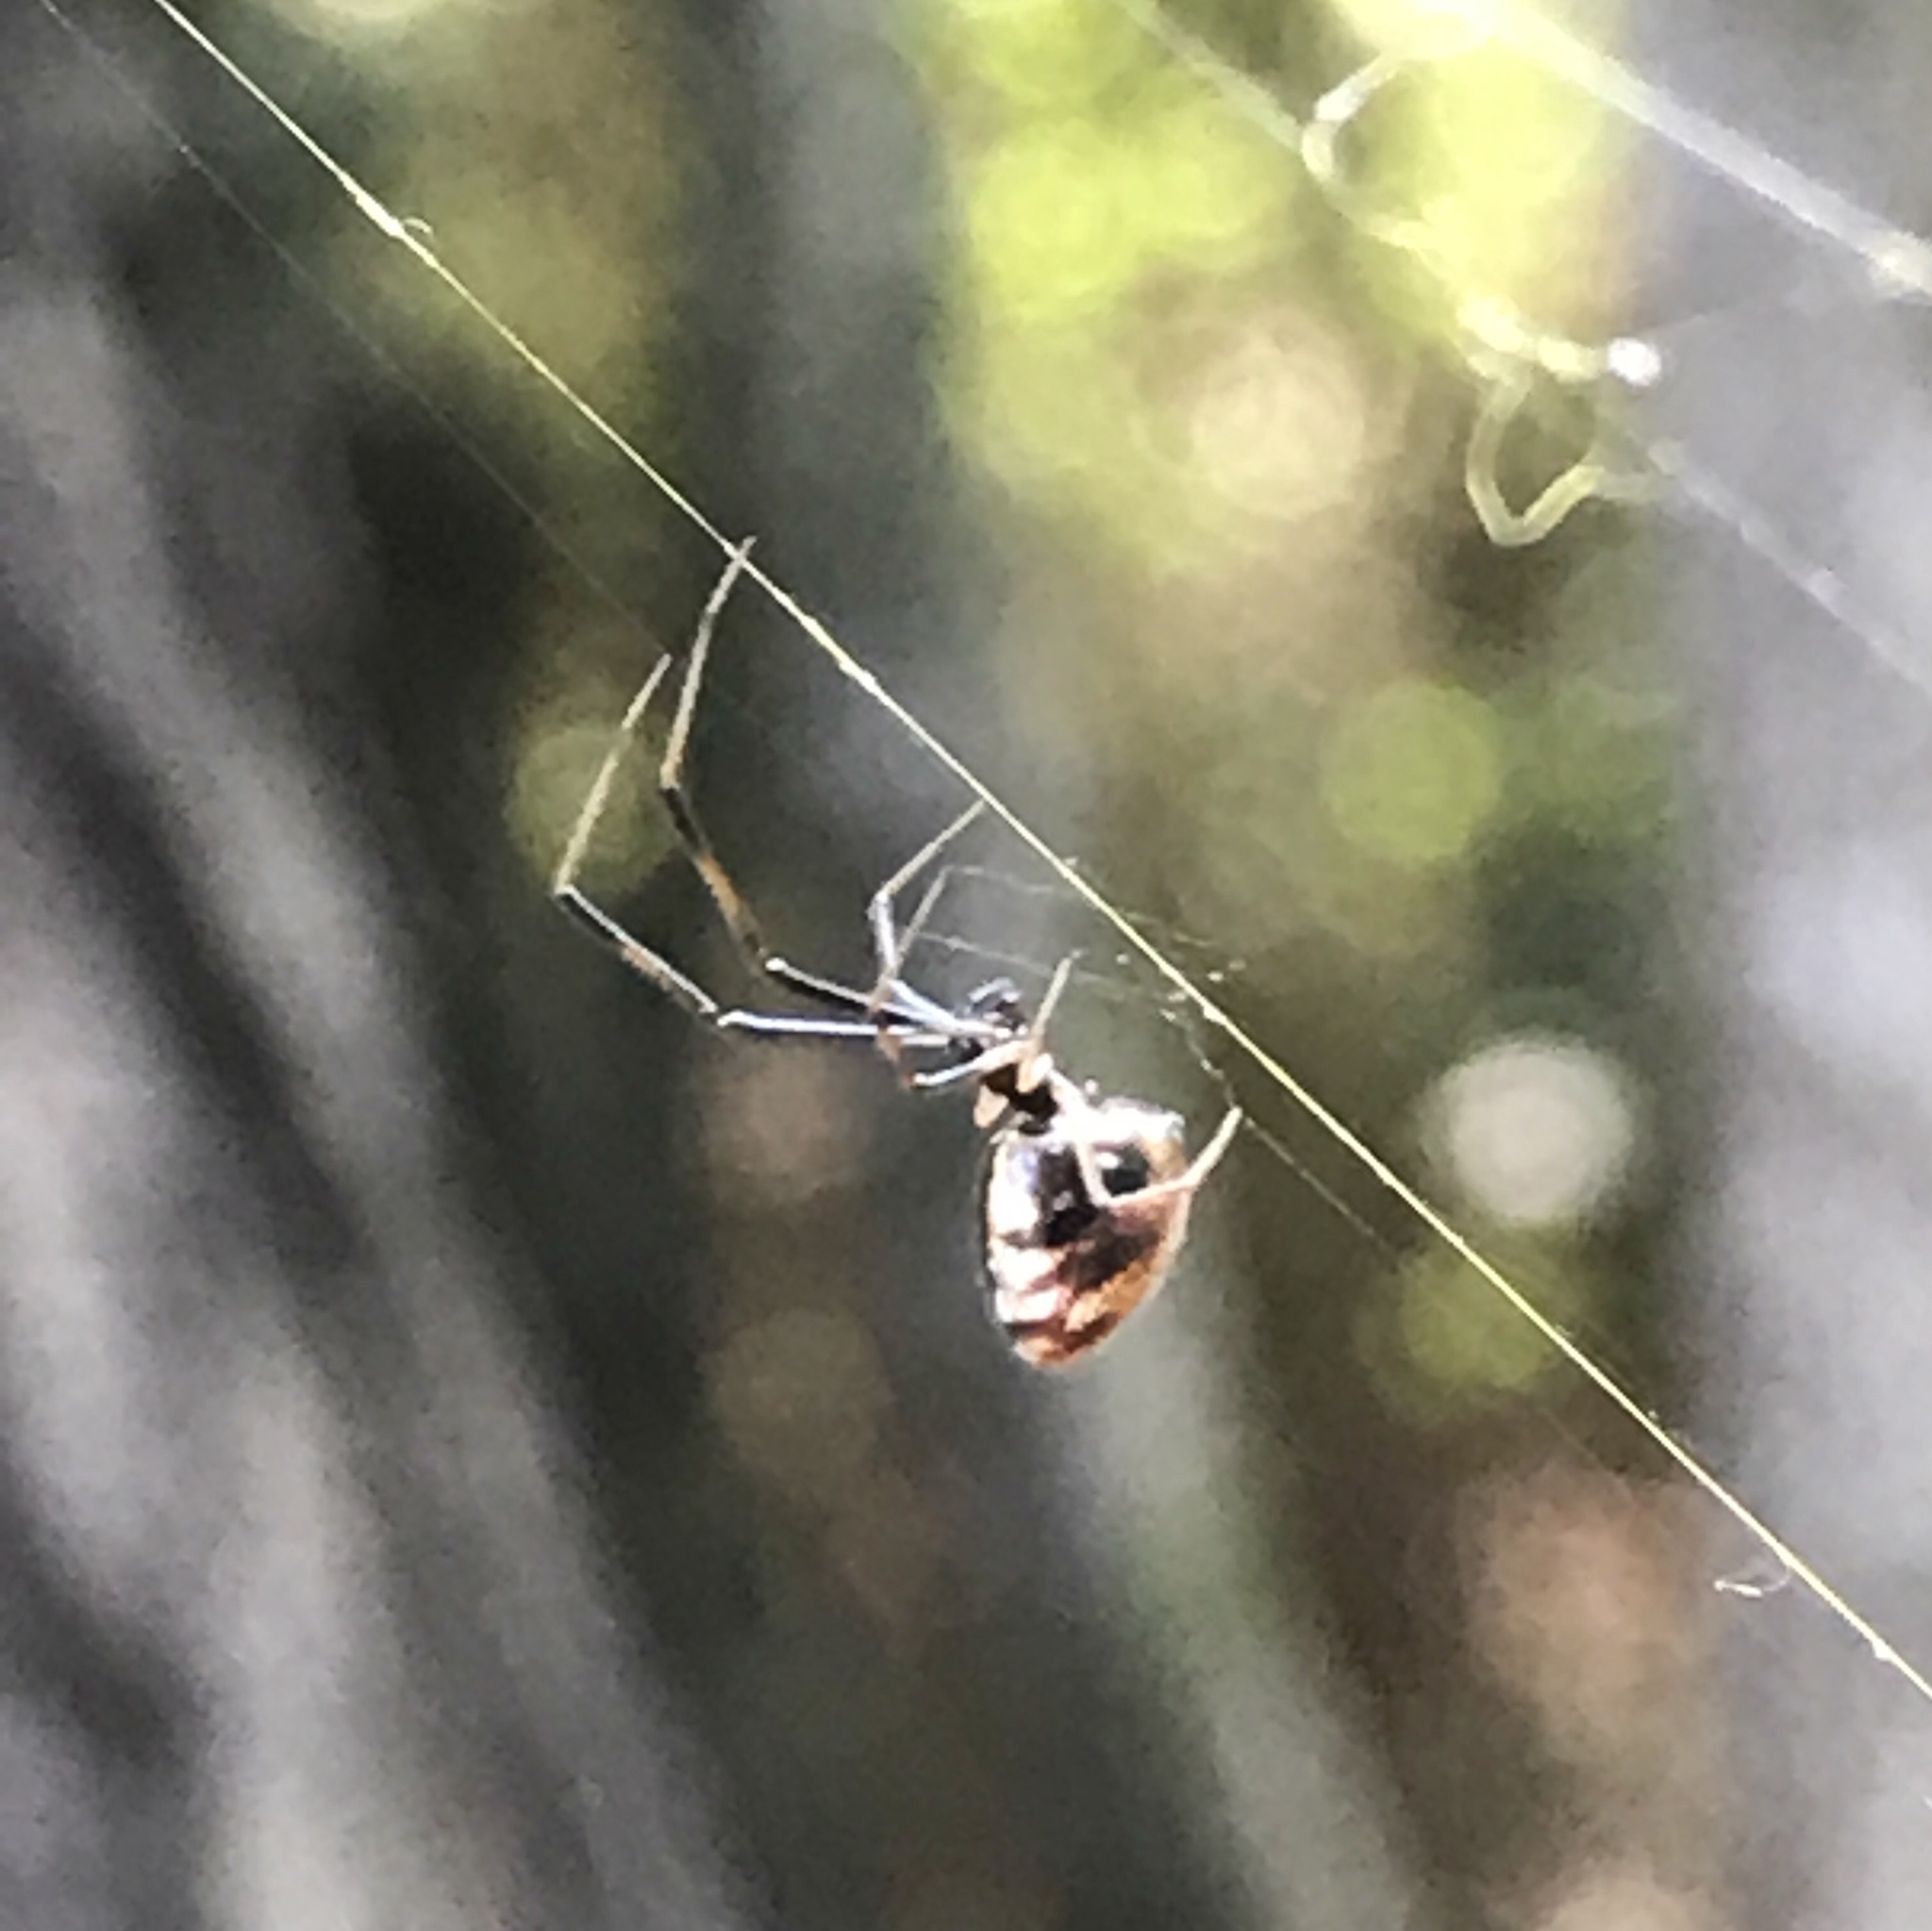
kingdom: Animalia
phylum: Arthropoda
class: Arachnida
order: Araneae
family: Theridiidae
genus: Argyrodes
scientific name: Argyrodes elevatus
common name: Cobweb spiders
